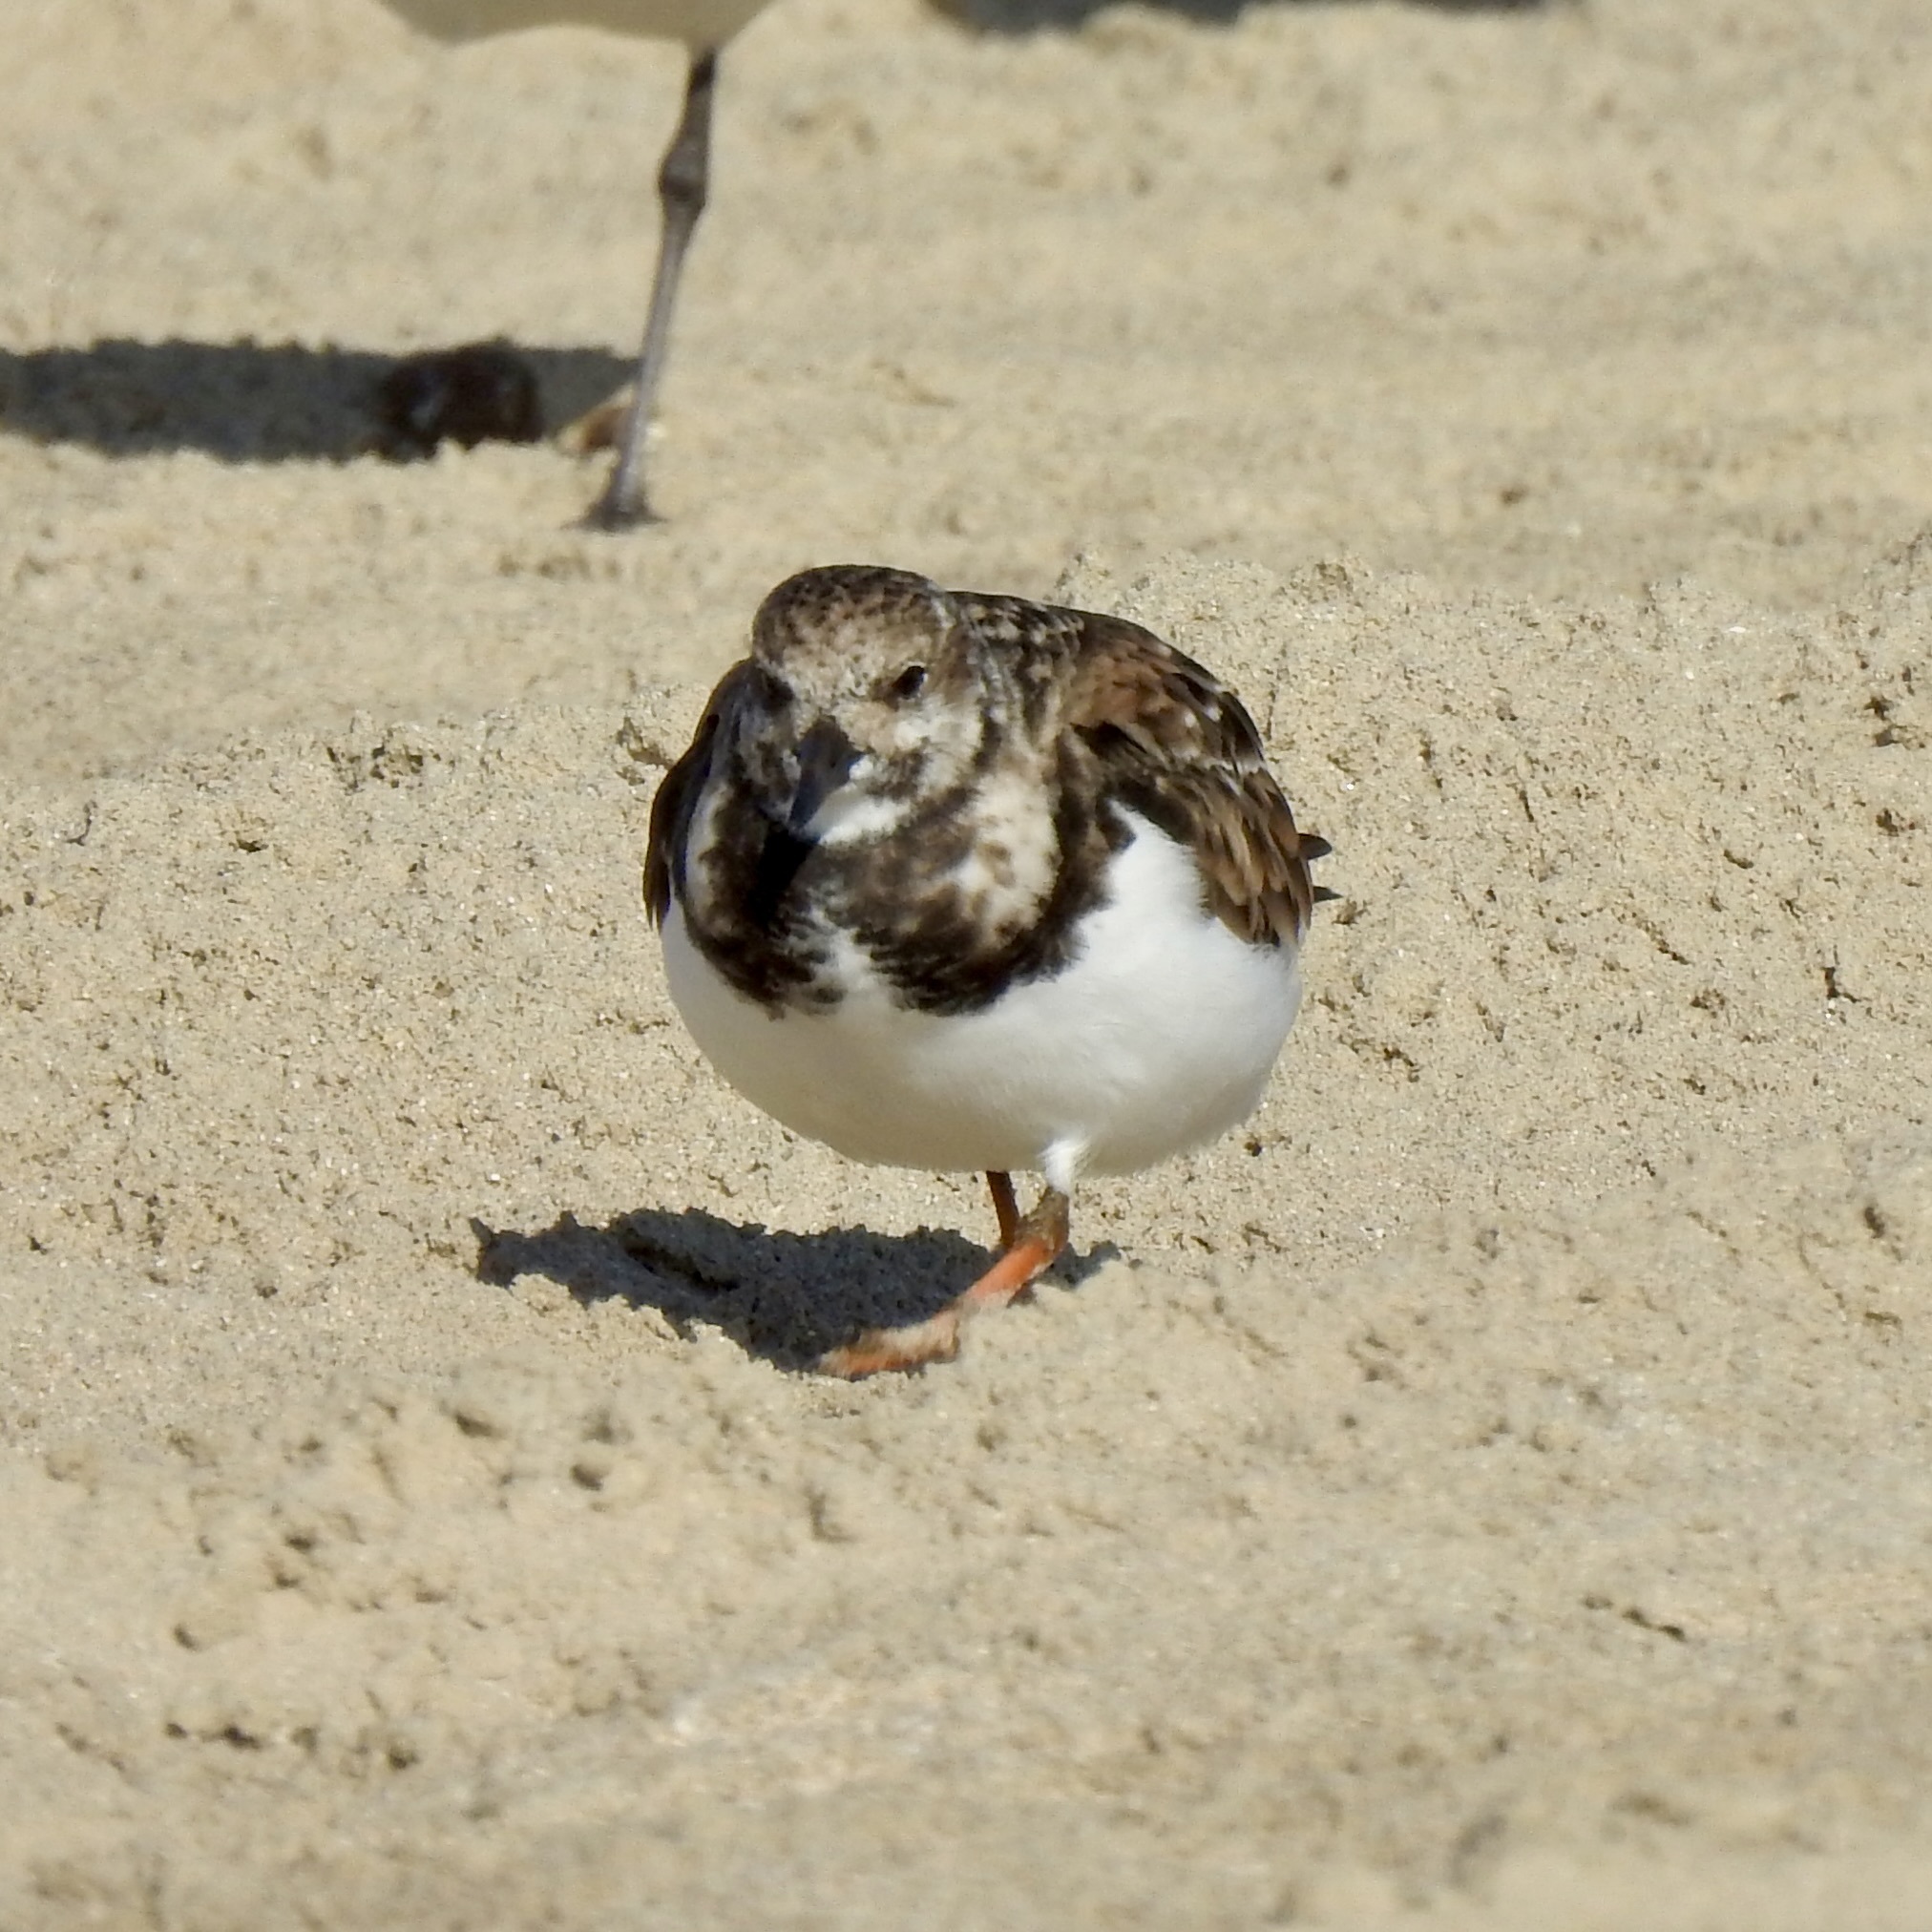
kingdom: Animalia
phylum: Chordata
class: Aves
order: Charadriiformes
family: Scolopacidae
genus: Arenaria
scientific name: Arenaria interpres
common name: Ruddy turnstone
